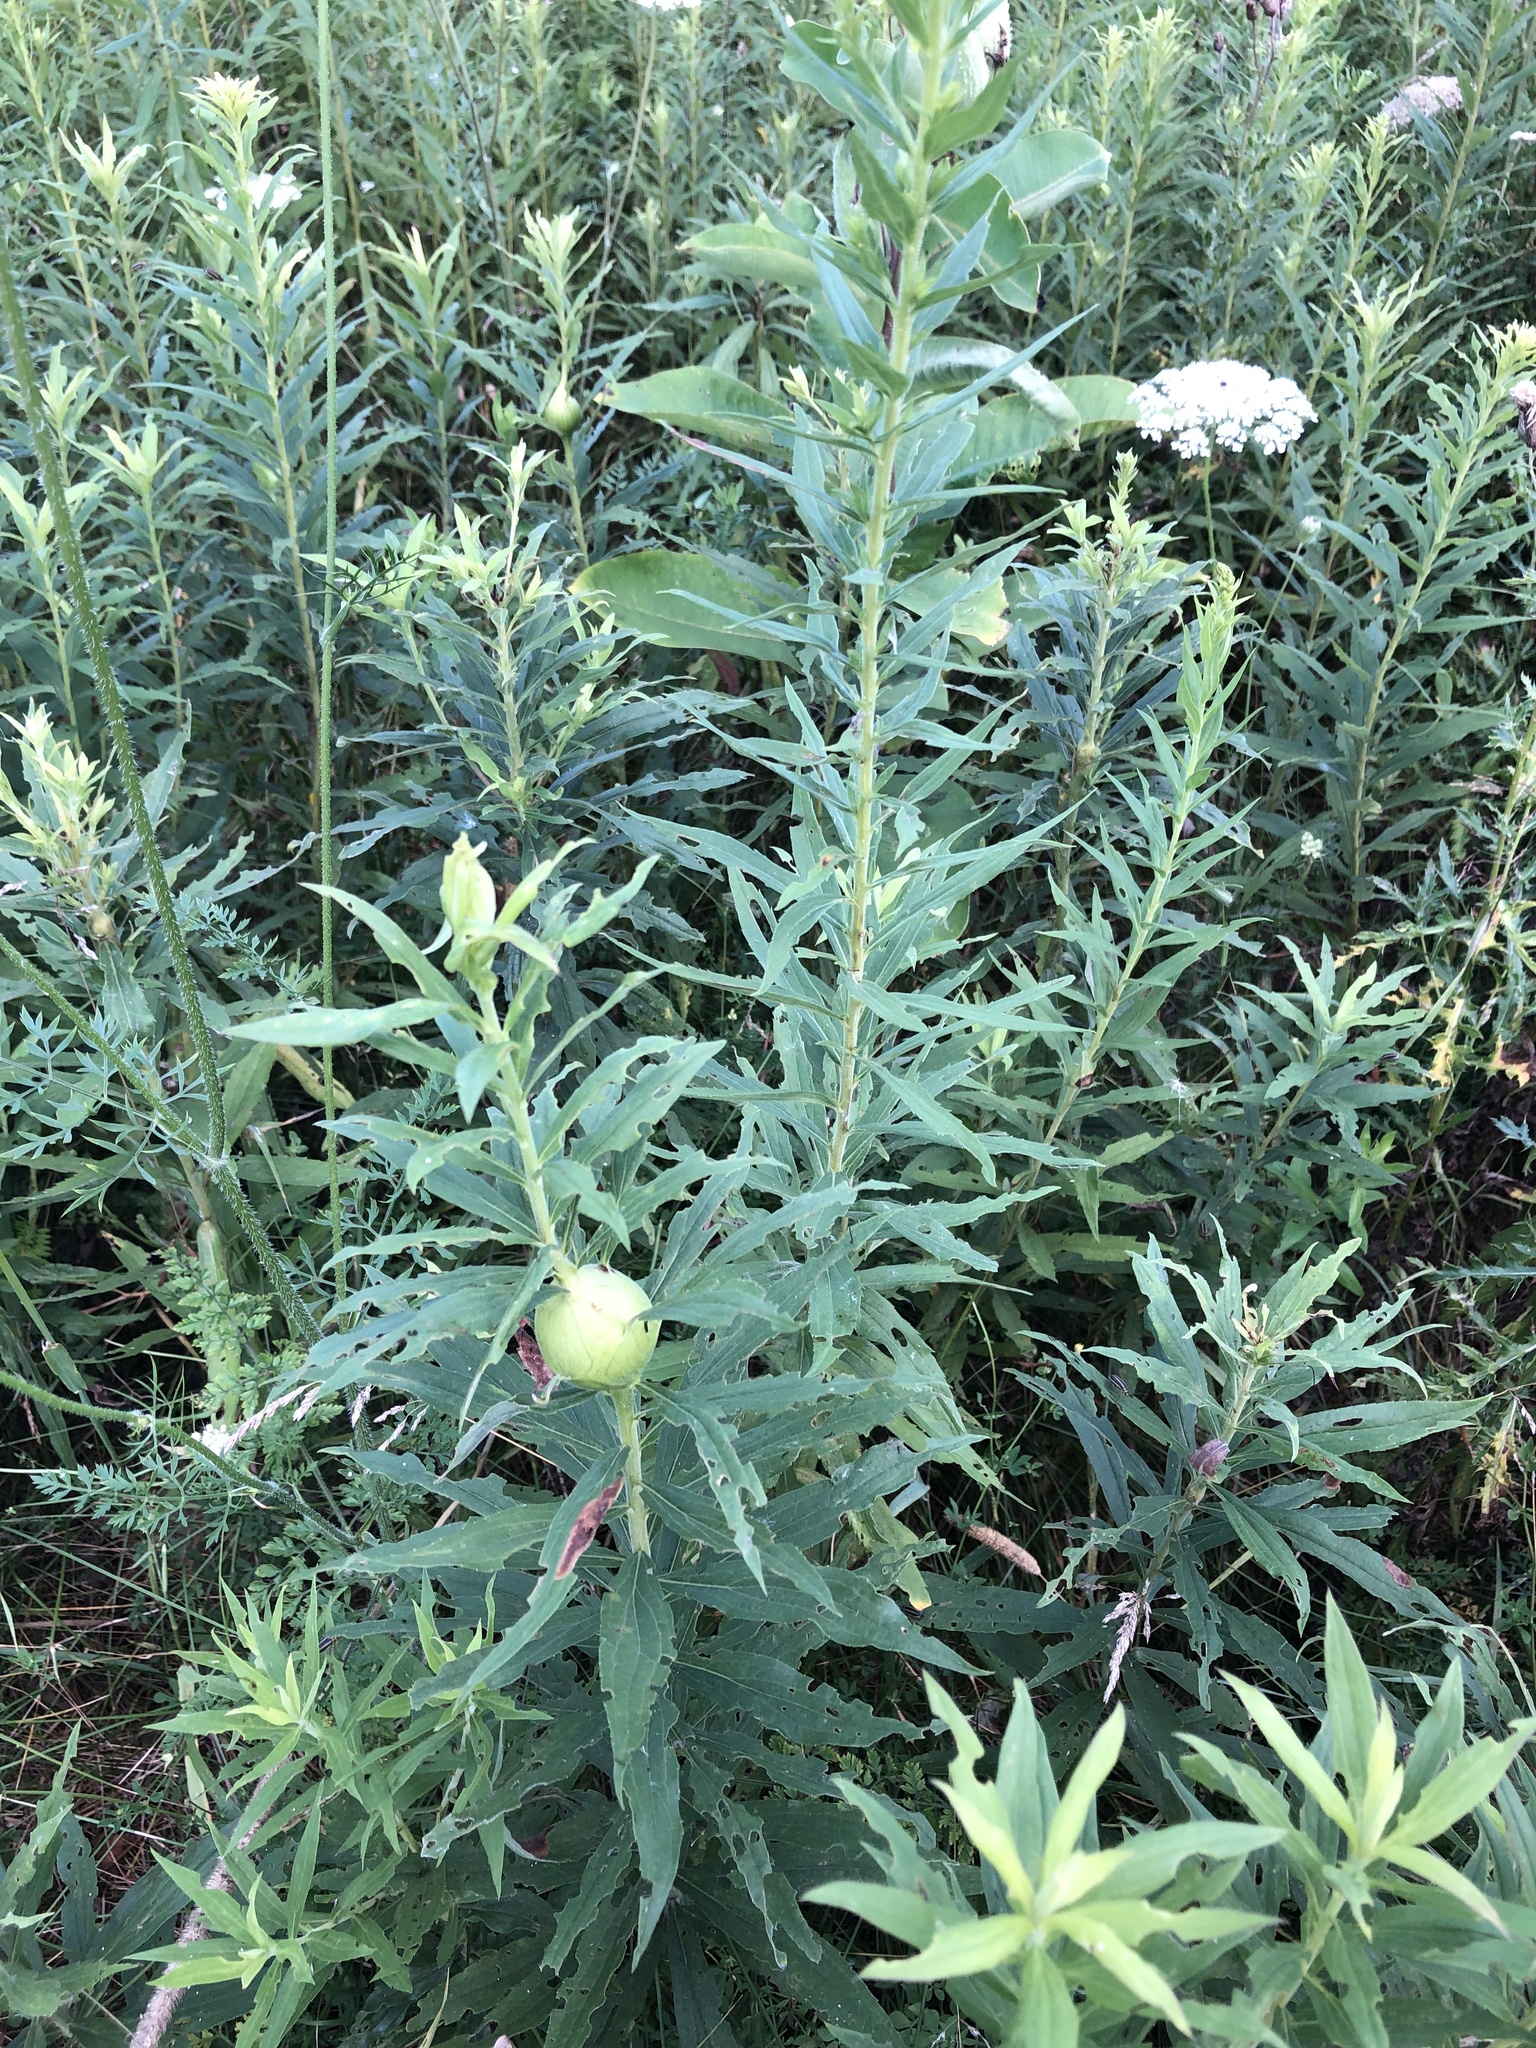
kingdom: Plantae
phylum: Tracheophyta
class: Magnoliopsida
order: Asterales
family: Asteraceae
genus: Solidago
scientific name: Solidago altissima
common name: Late goldenrod
